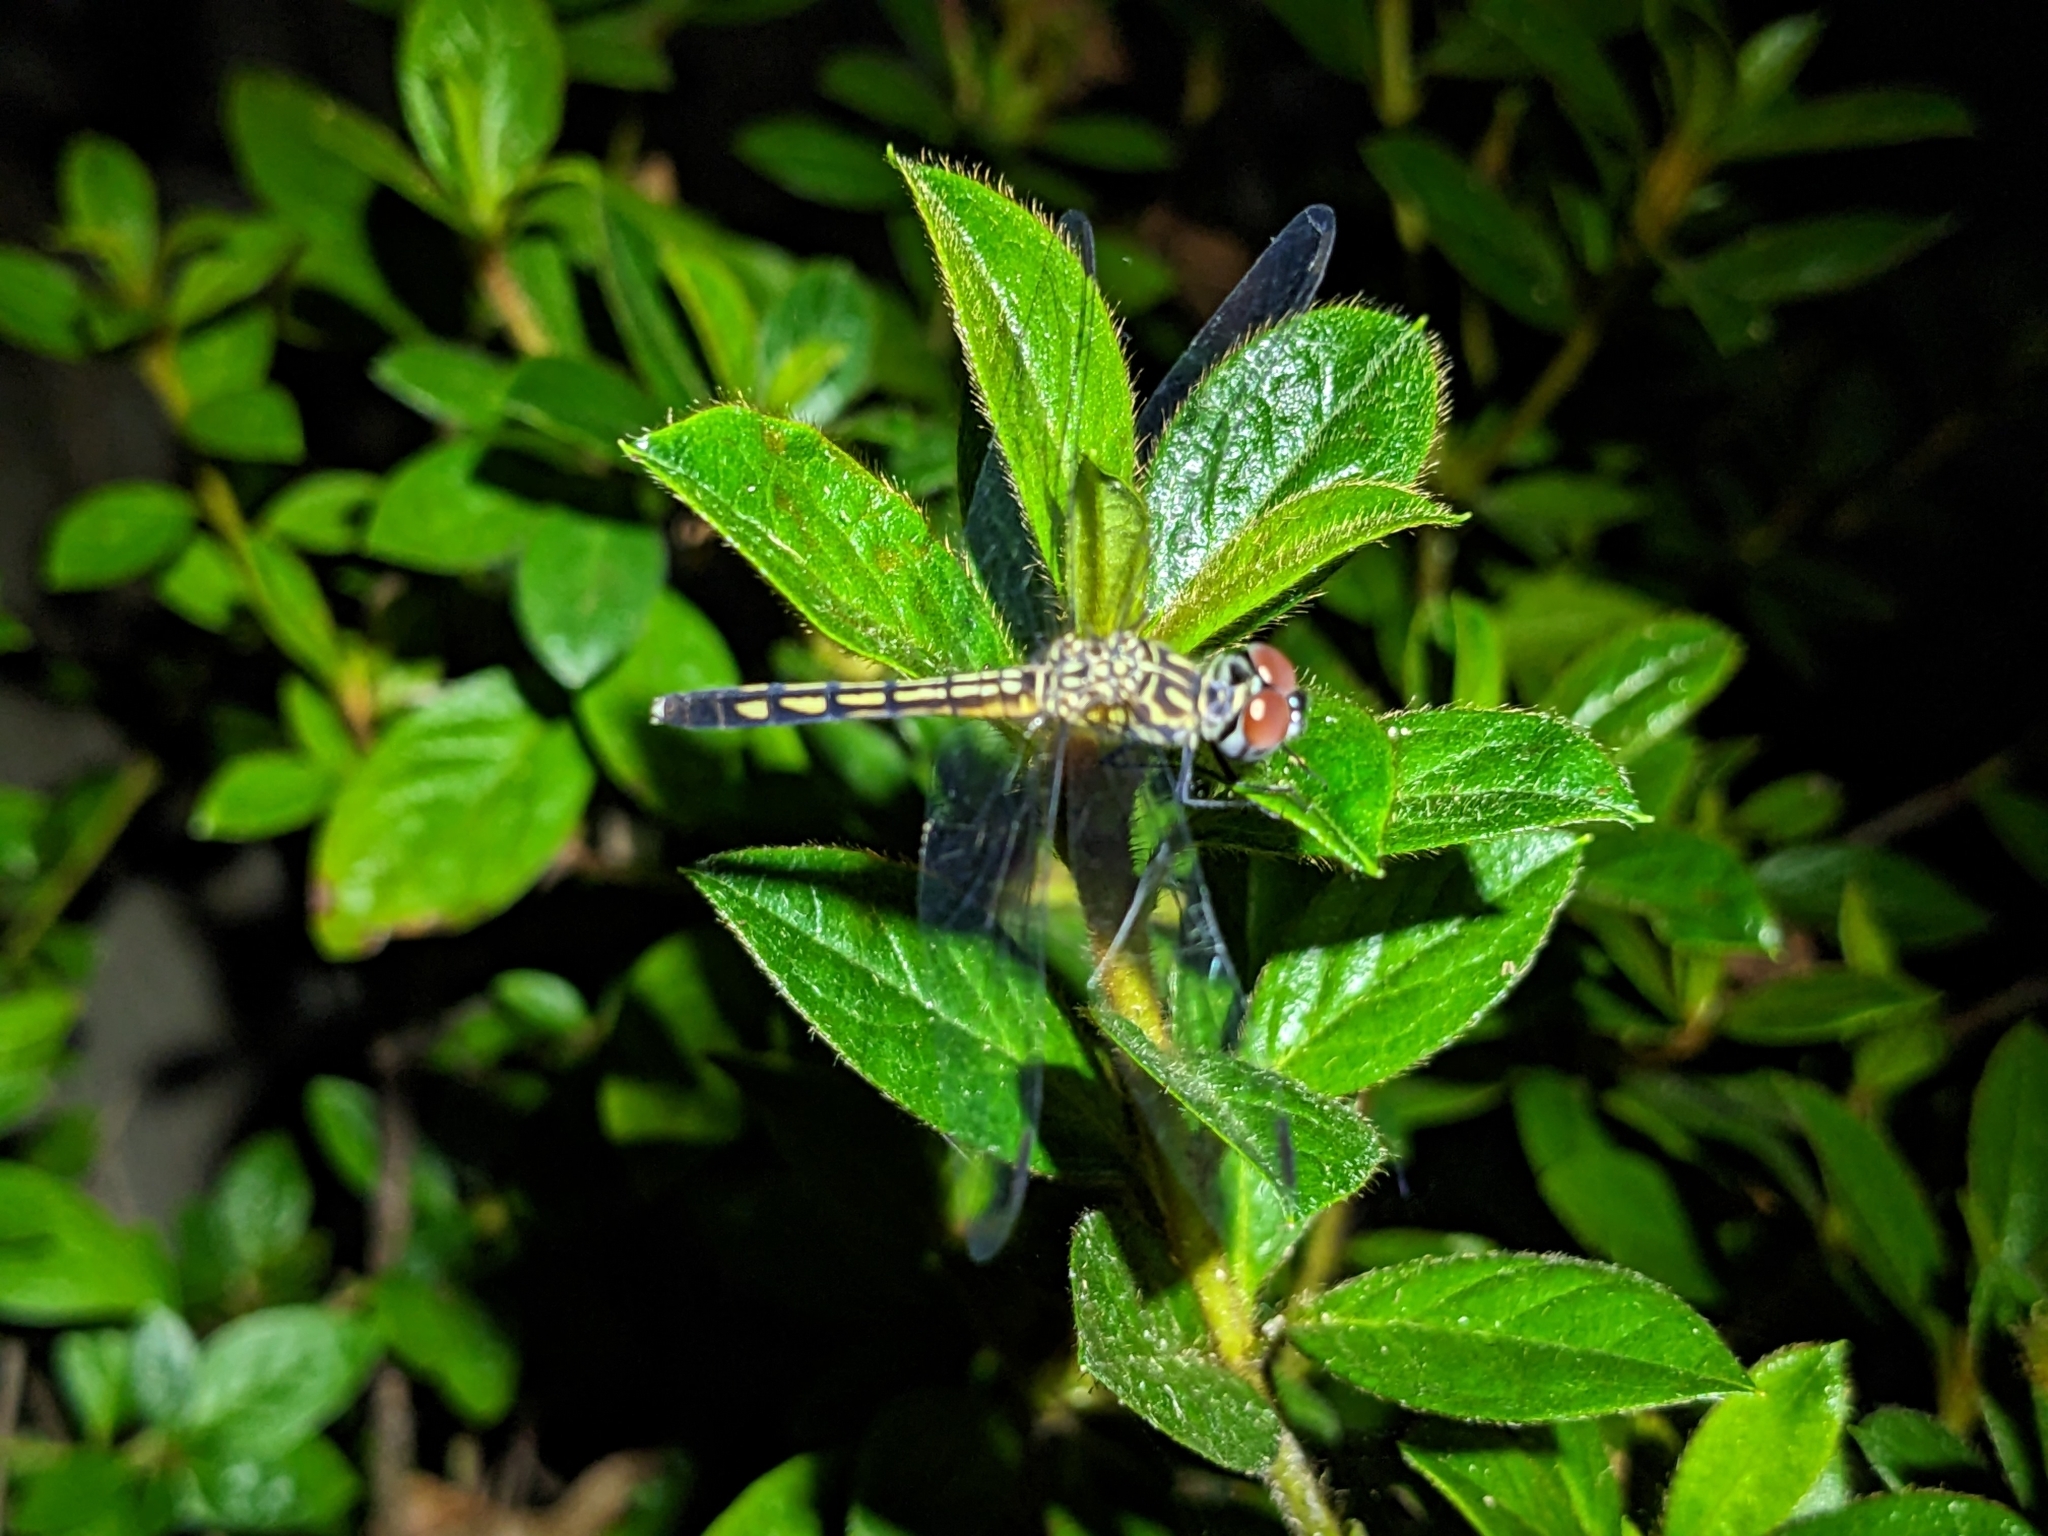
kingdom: Animalia
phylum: Arthropoda
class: Insecta
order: Odonata
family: Libellulidae
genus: Pachydiplax
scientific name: Pachydiplax longipennis
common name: Blue dasher
